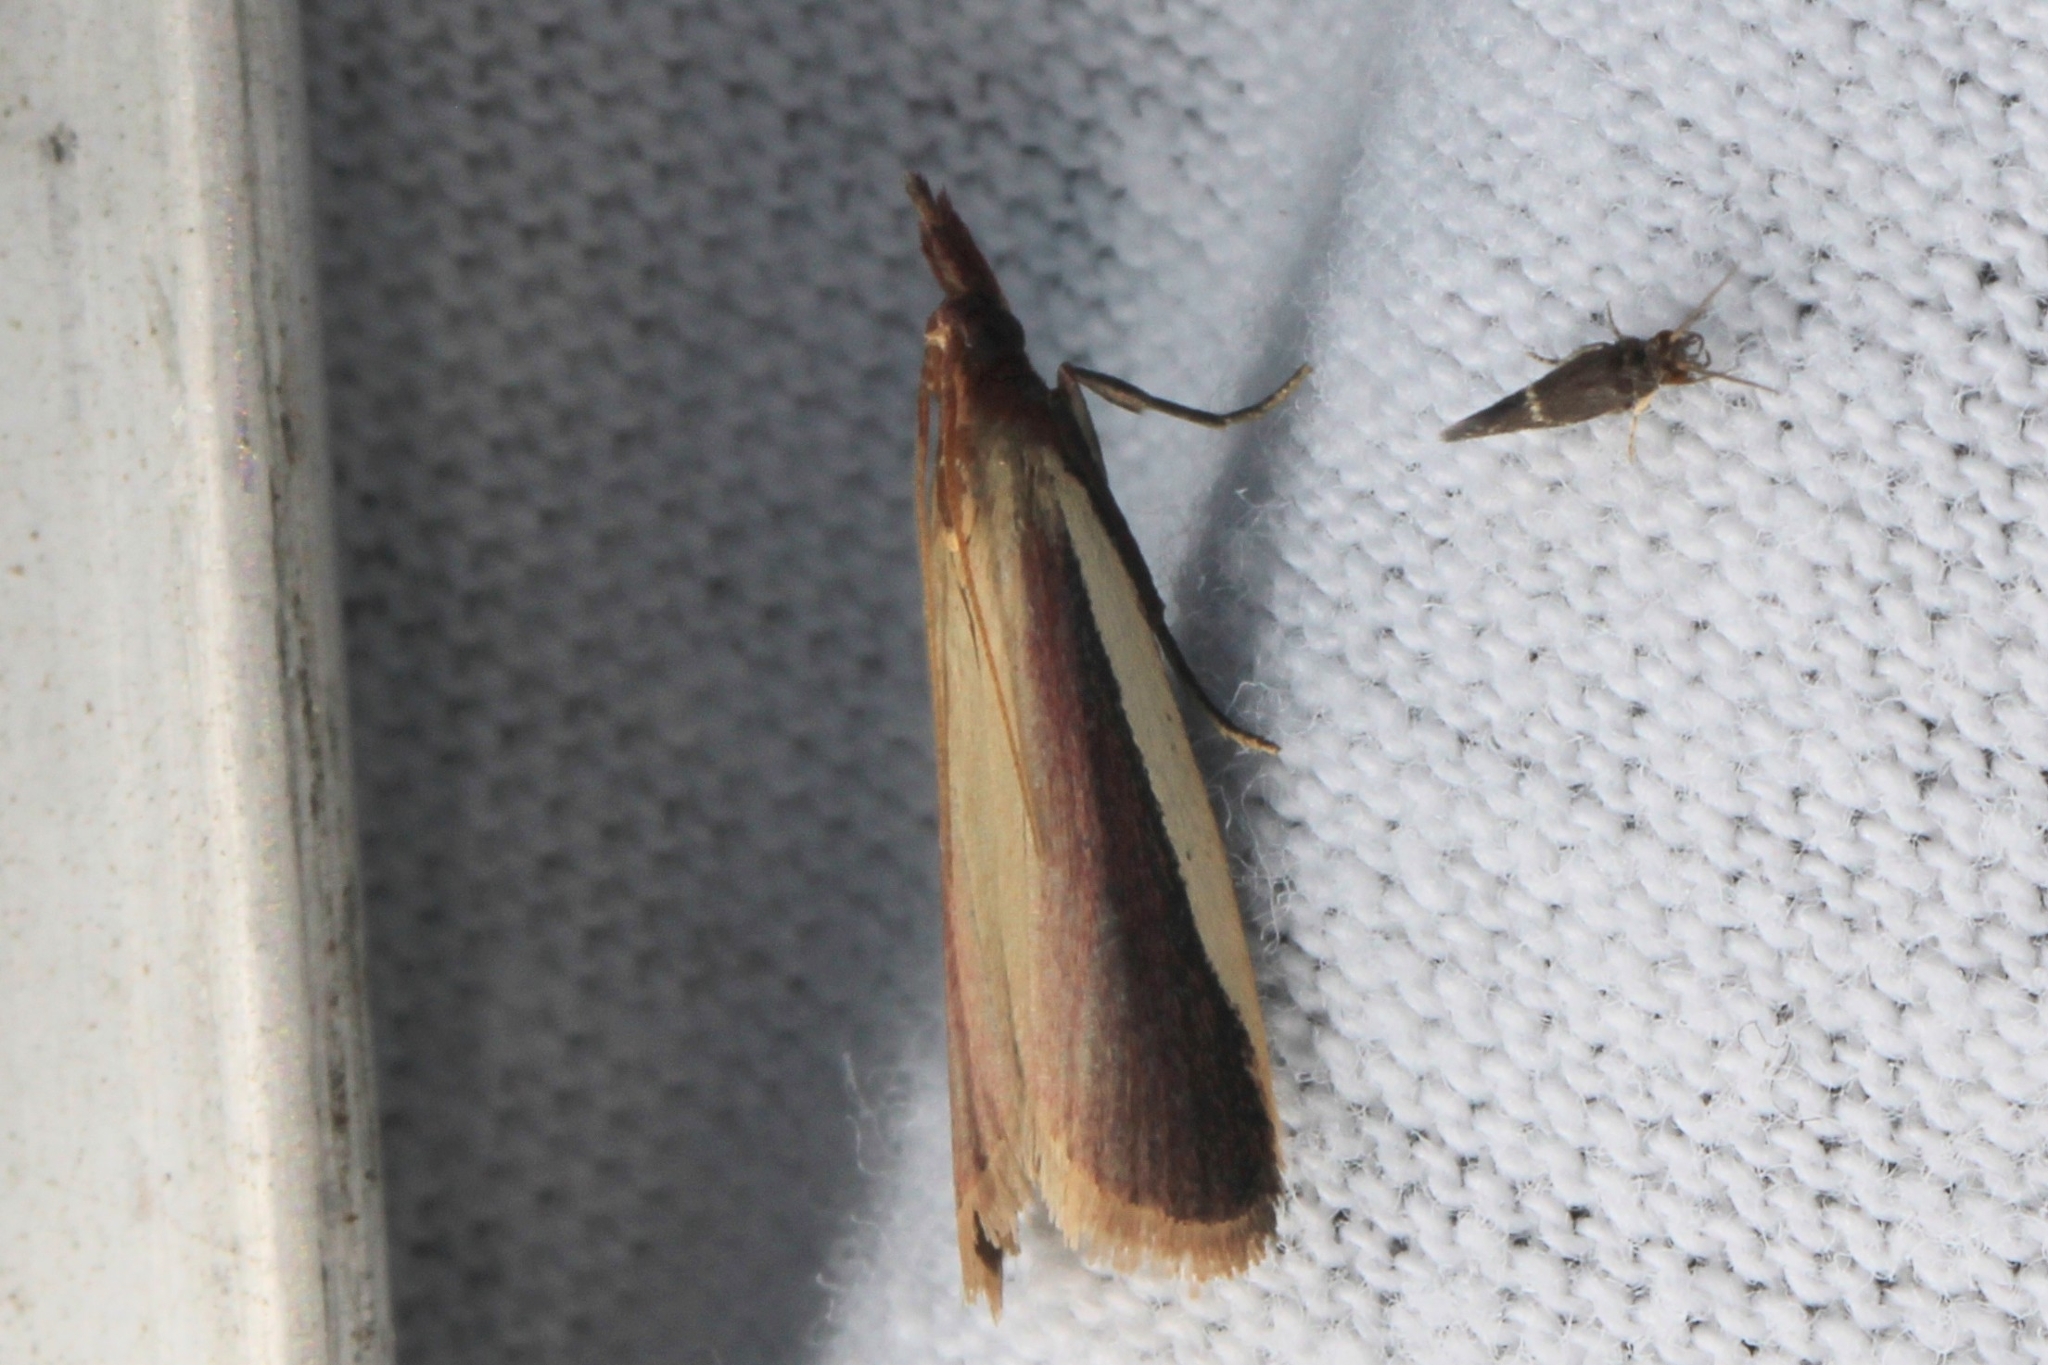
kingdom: Animalia
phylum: Arthropoda
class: Insecta
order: Lepidoptera
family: Pyralidae
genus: Peoria
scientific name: Peoria approximella
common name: Carmine snout
